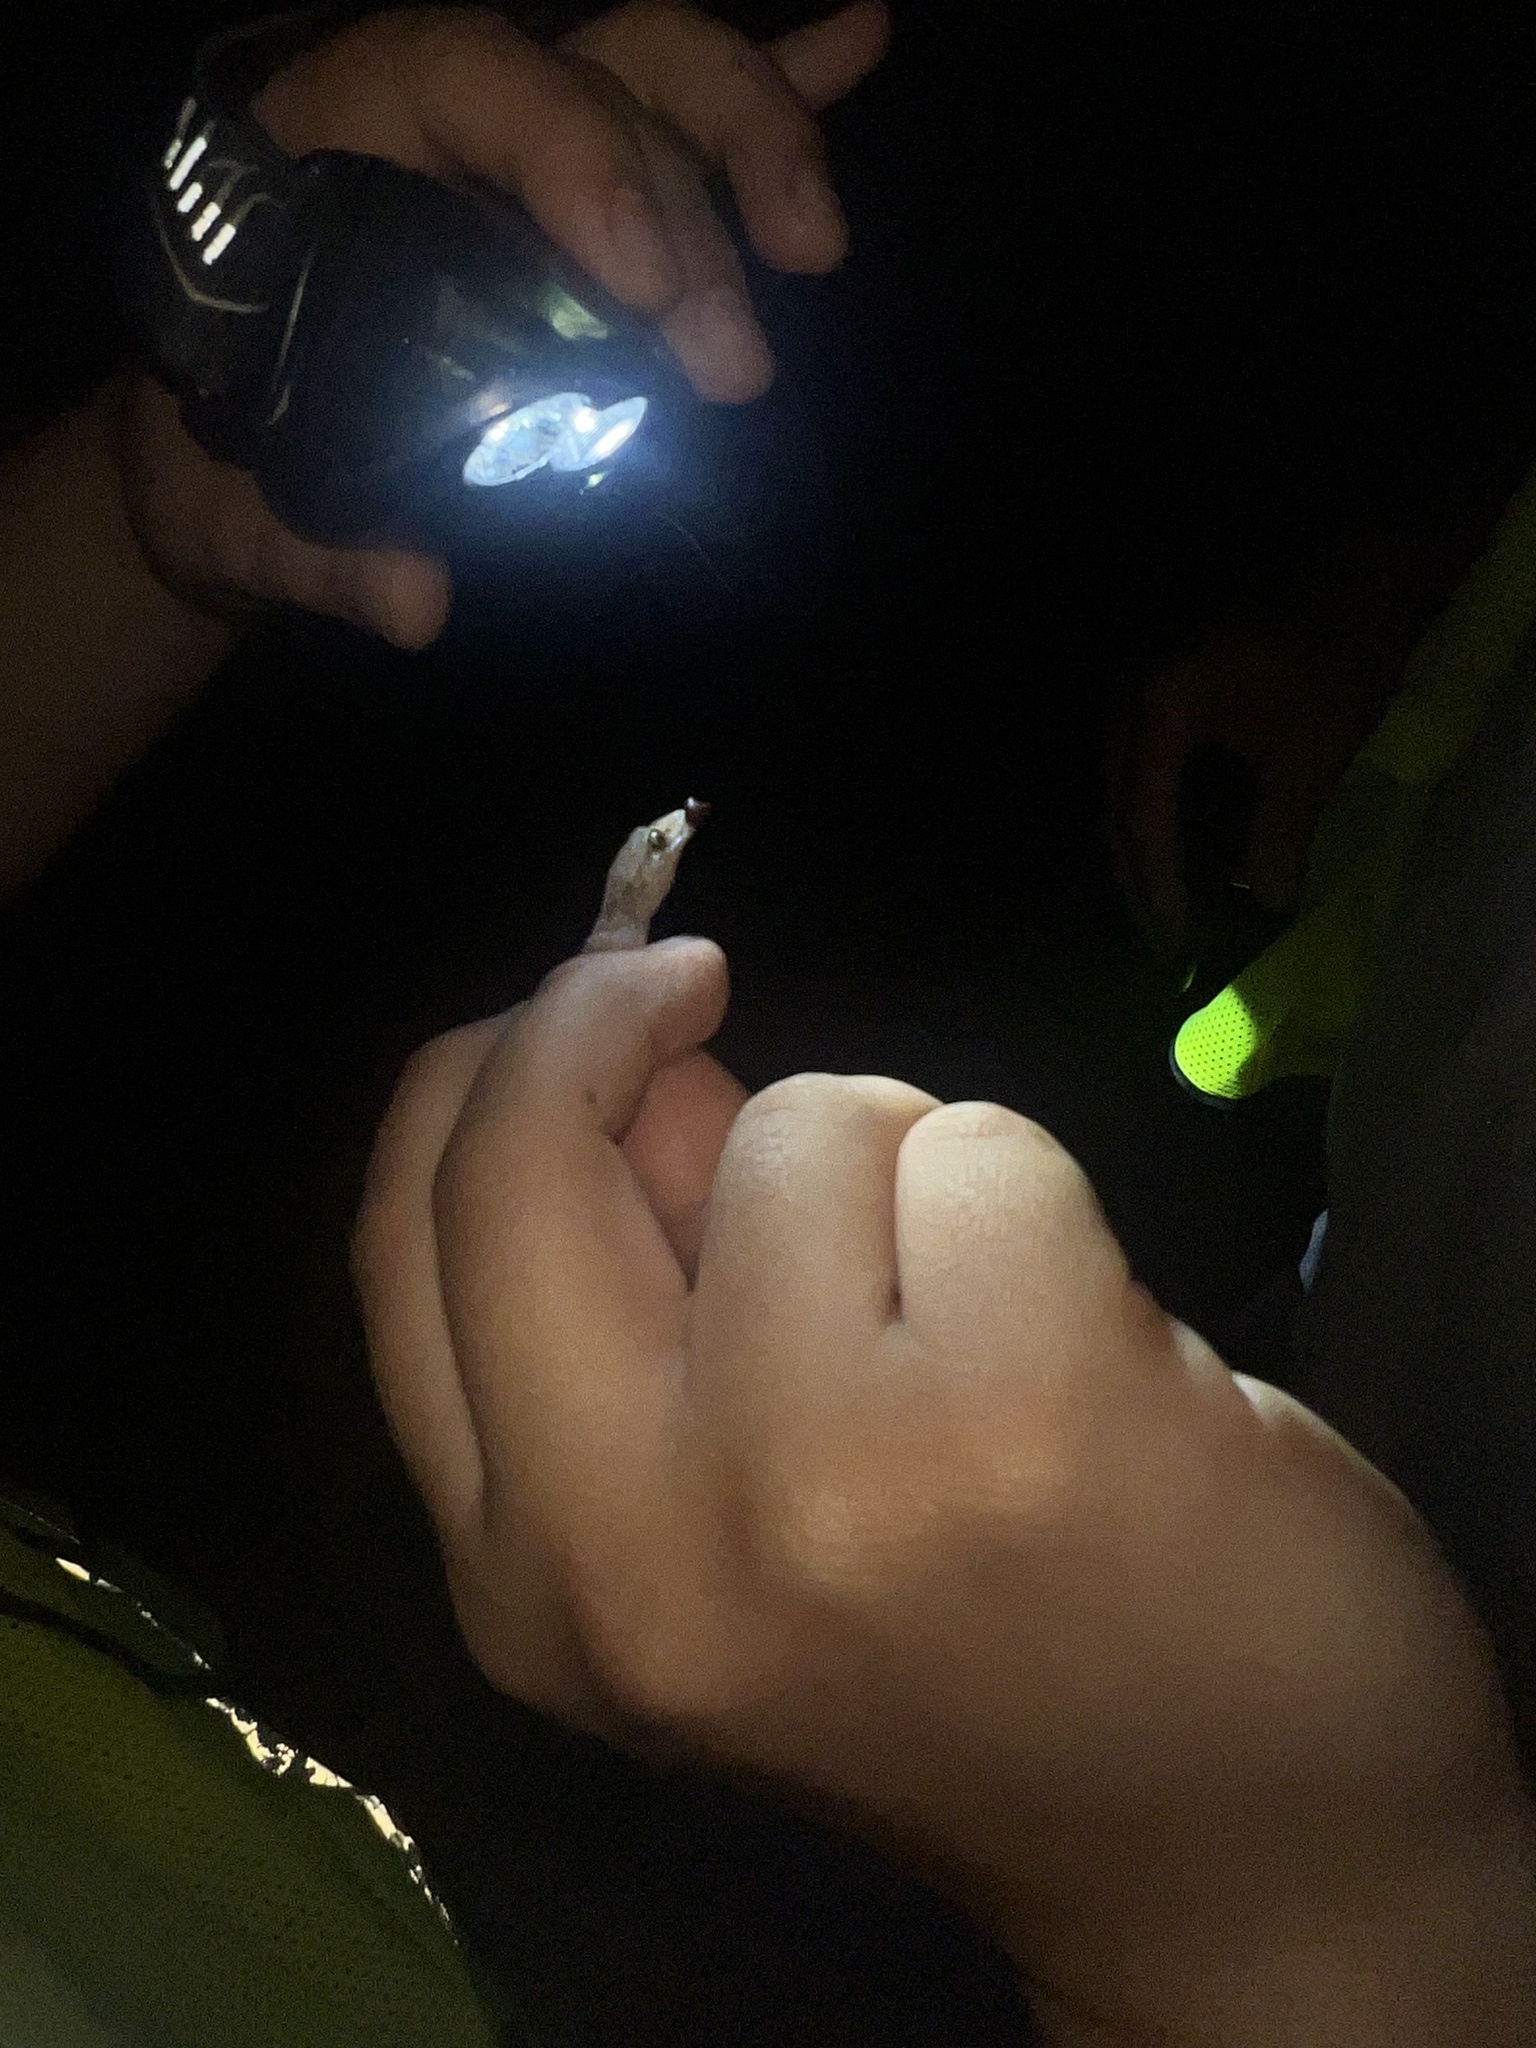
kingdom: Animalia
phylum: Chordata
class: Squamata
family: Gekkonidae
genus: Hemidactylus
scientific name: Hemidactylus turcicus
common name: Turkish gecko
